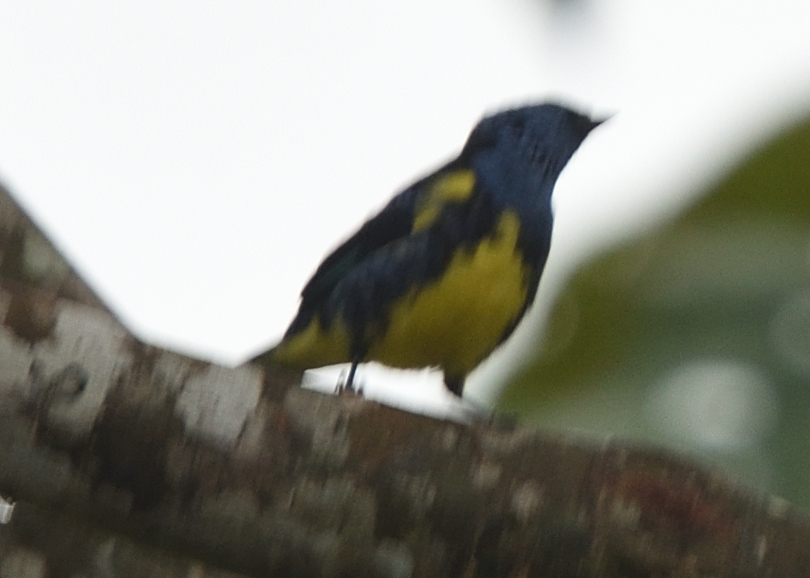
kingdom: Animalia
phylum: Chordata
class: Aves
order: Passeriformes
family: Thraupidae
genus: Tangara
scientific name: Tangara mexicana
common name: Turquoise tanager
